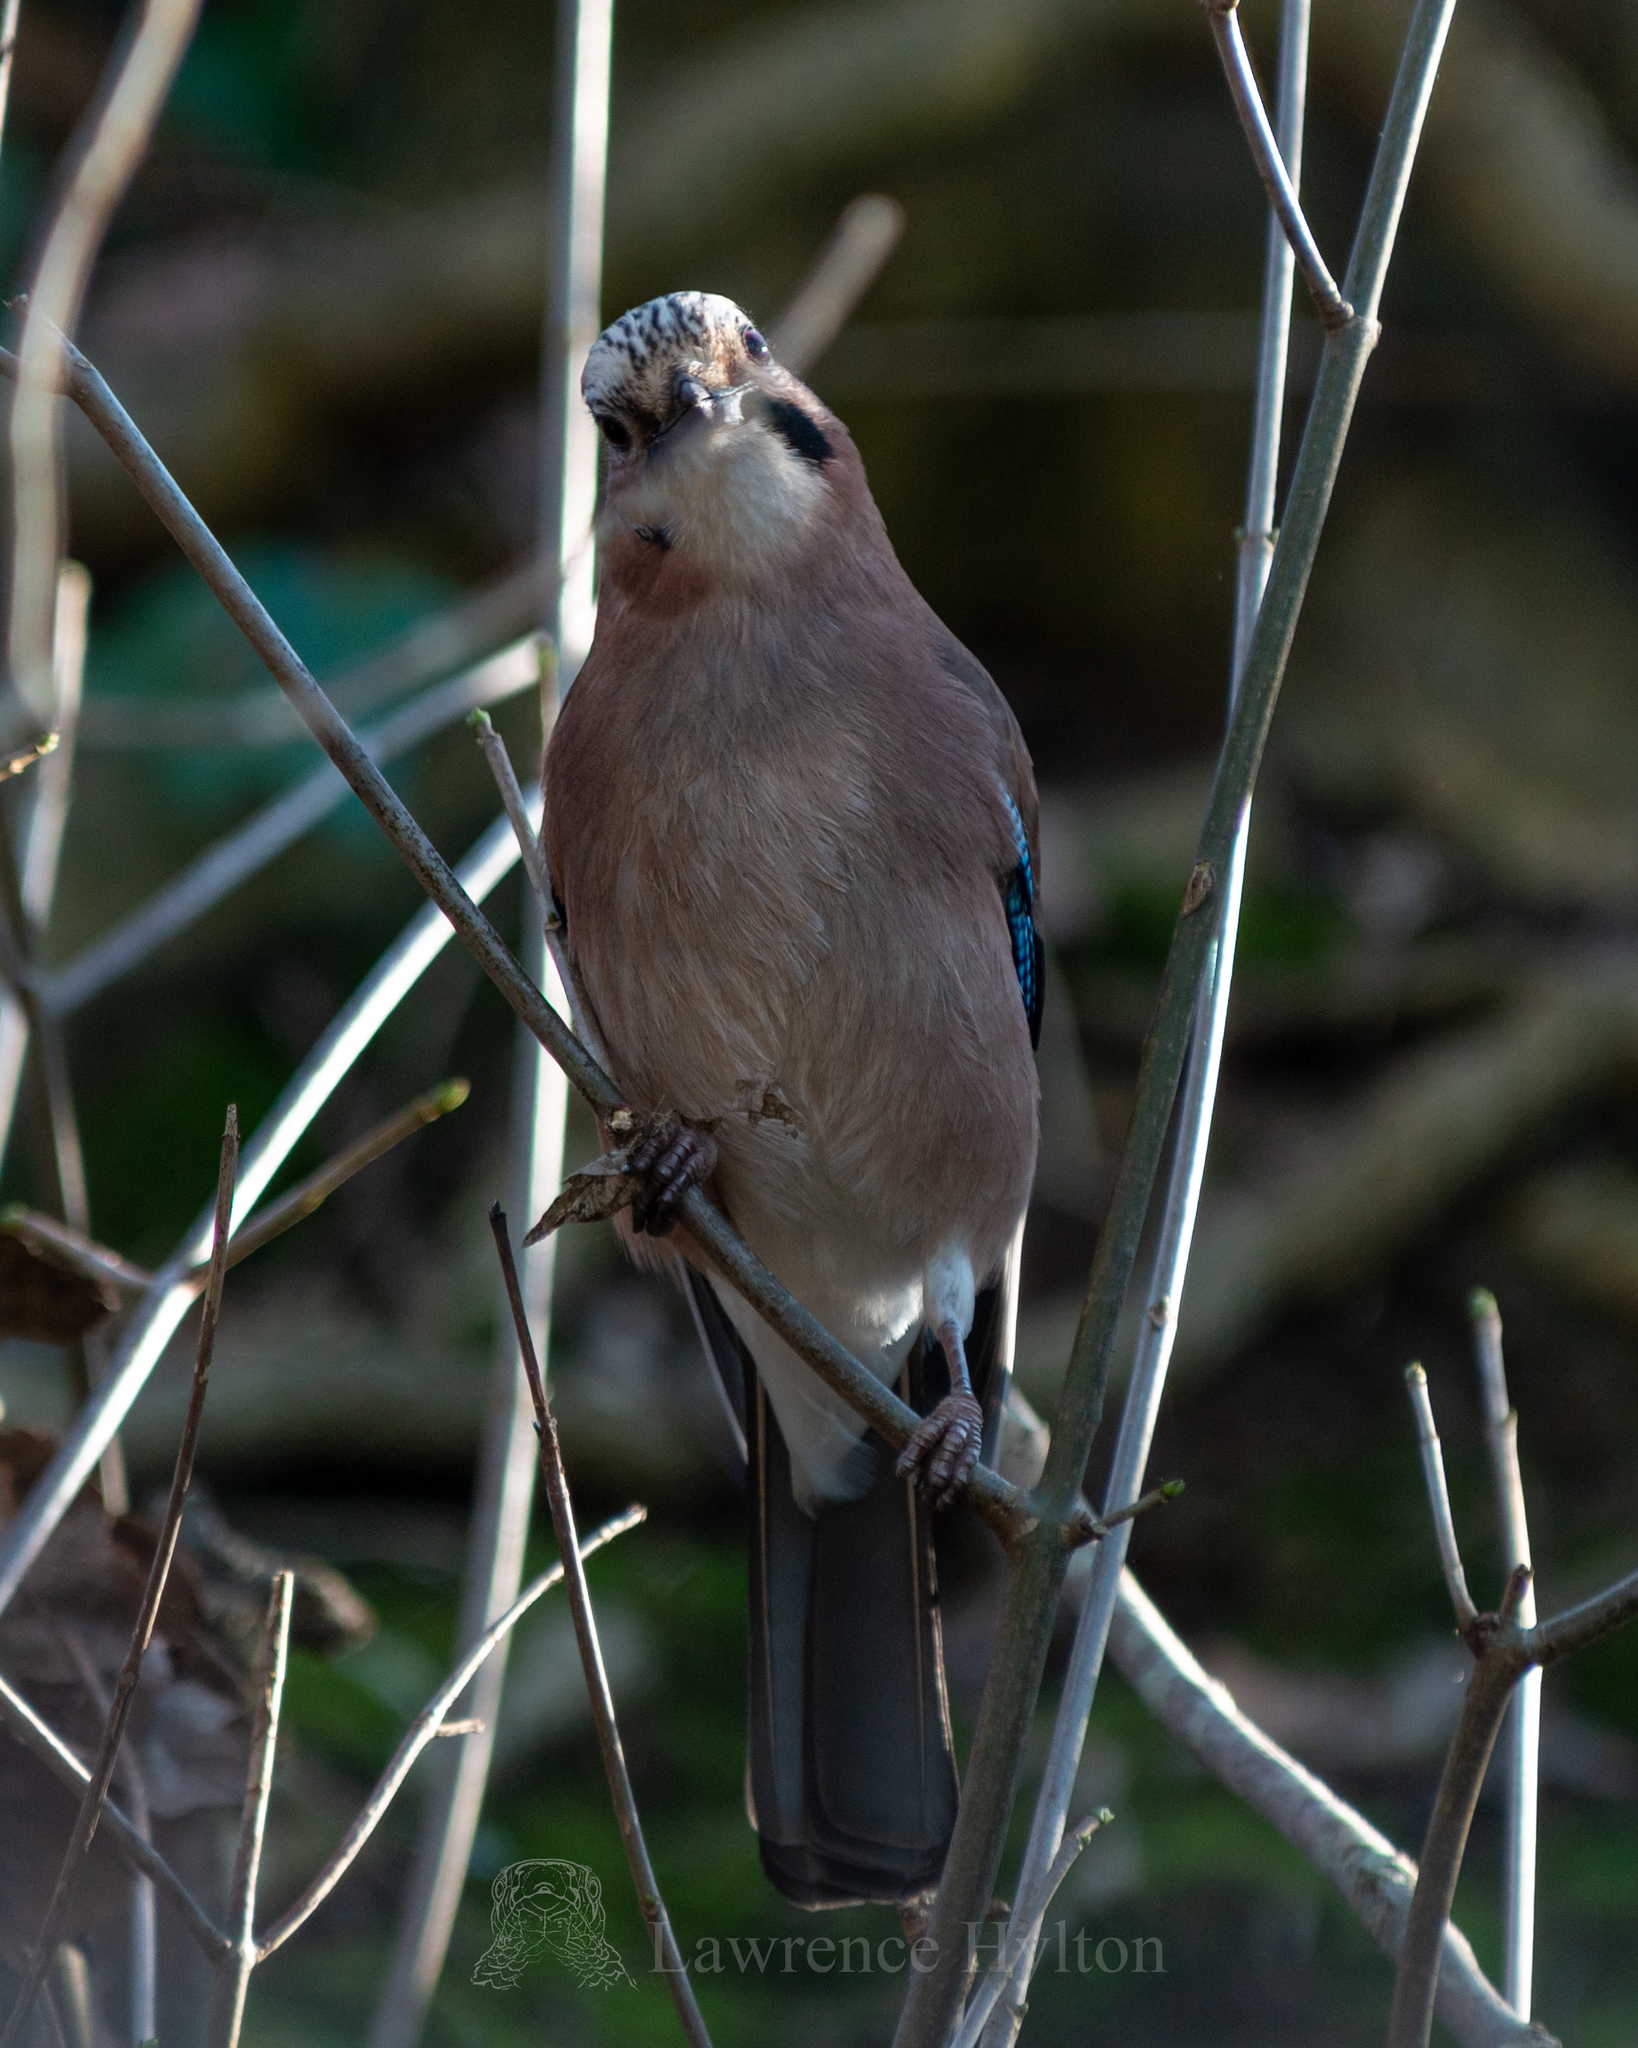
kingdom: Animalia
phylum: Chordata
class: Aves
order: Passeriformes
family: Corvidae
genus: Garrulus
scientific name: Garrulus glandarius
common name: Eurasian jay
